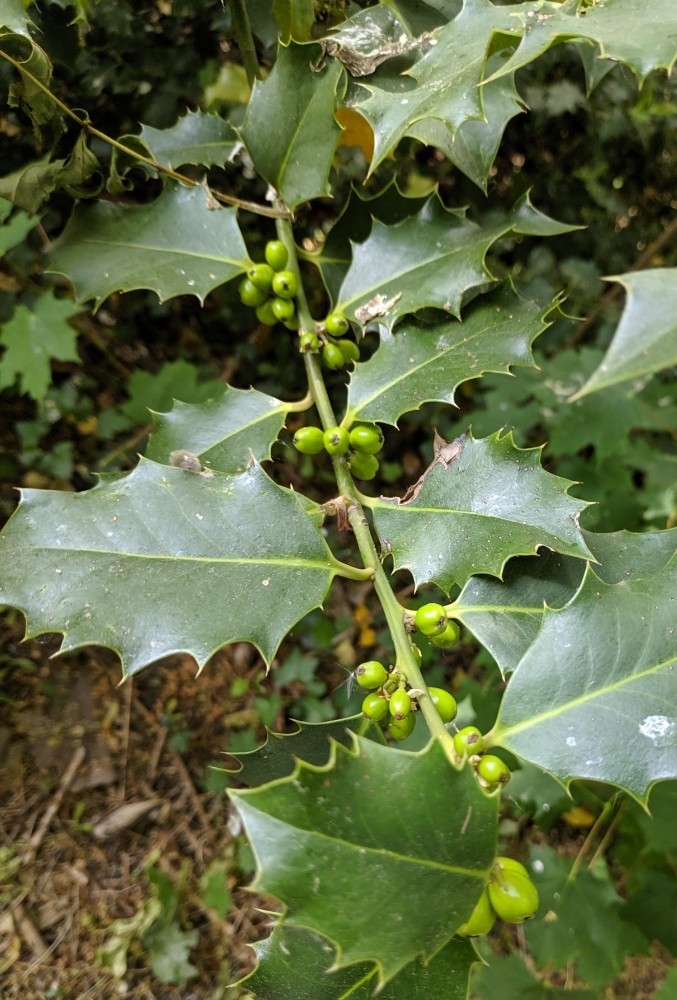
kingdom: Plantae
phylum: Tracheophyta
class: Magnoliopsida
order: Aquifoliales
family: Aquifoliaceae
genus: Ilex
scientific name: Ilex aquifolium
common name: English holly
